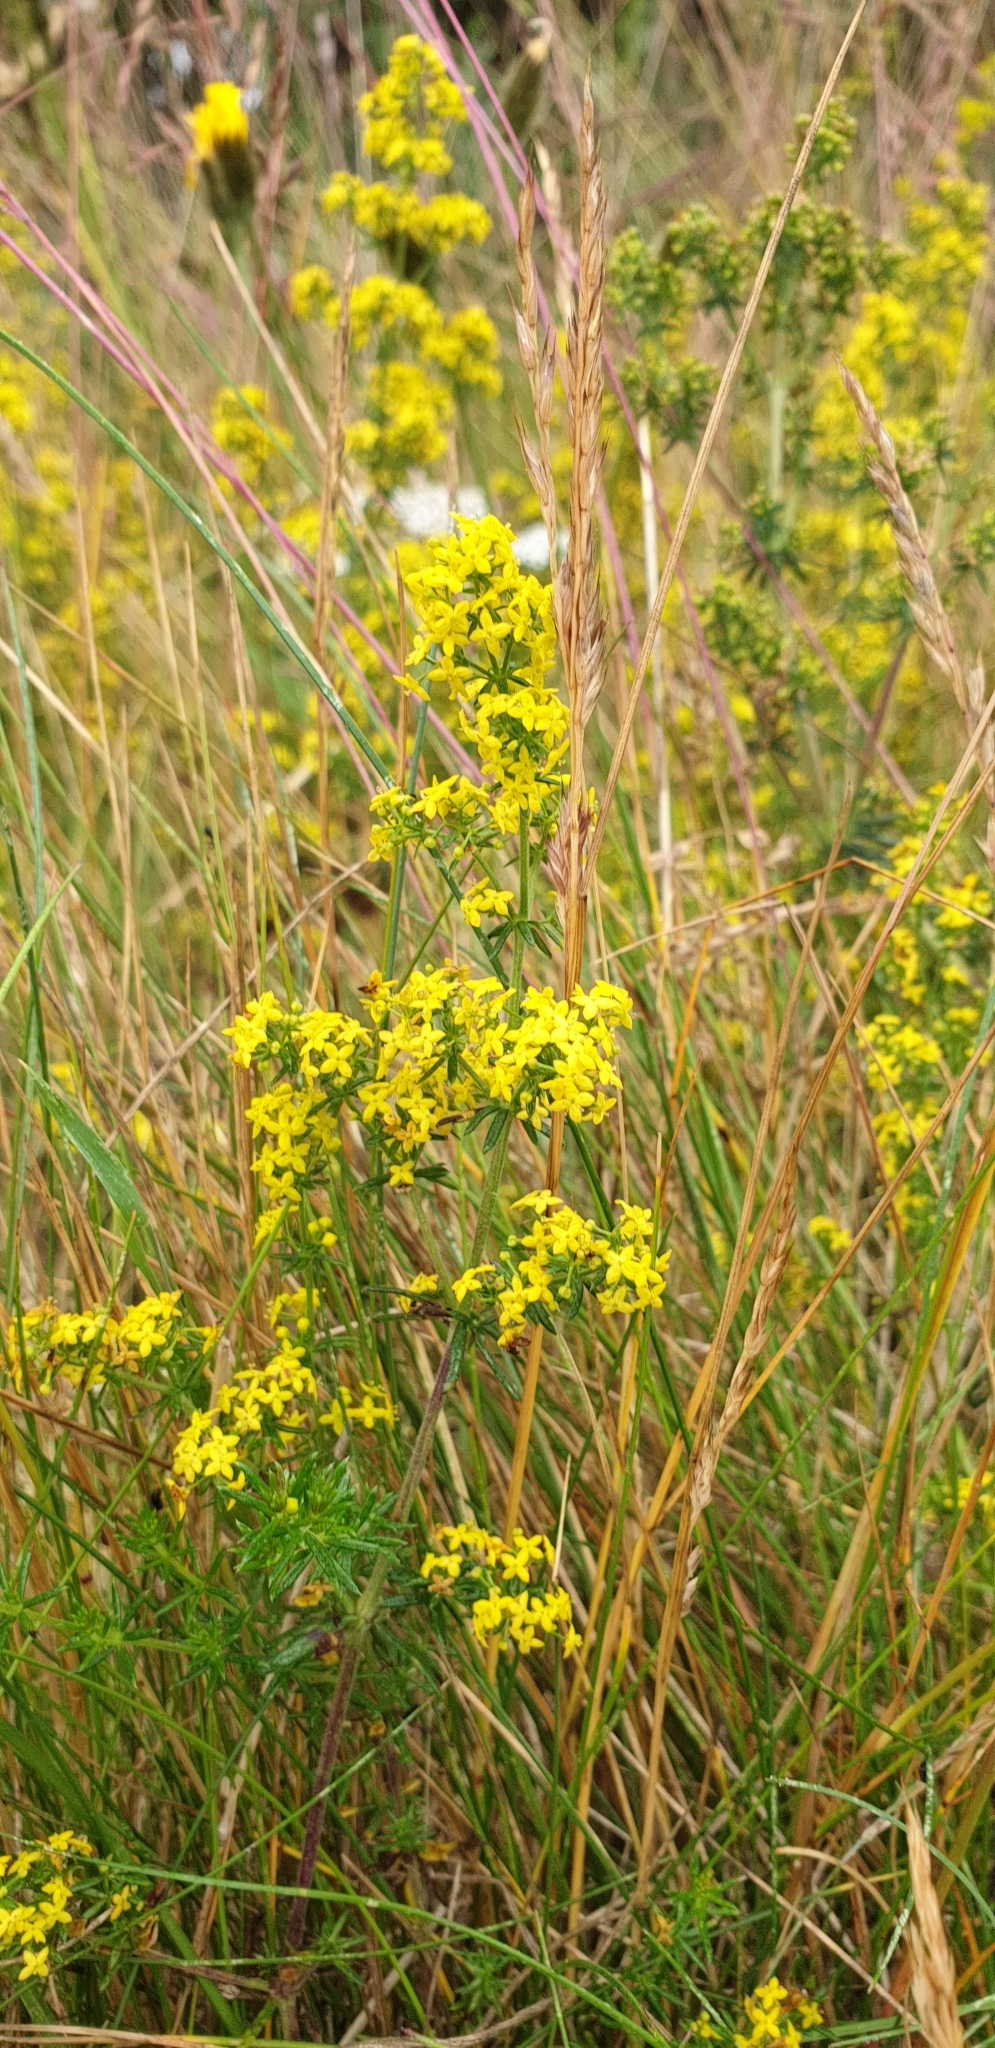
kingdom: Plantae
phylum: Tracheophyta
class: Magnoliopsida
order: Gentianales
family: Rubiaceae
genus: Galium
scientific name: Galium verum
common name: Lady's bedstraw
